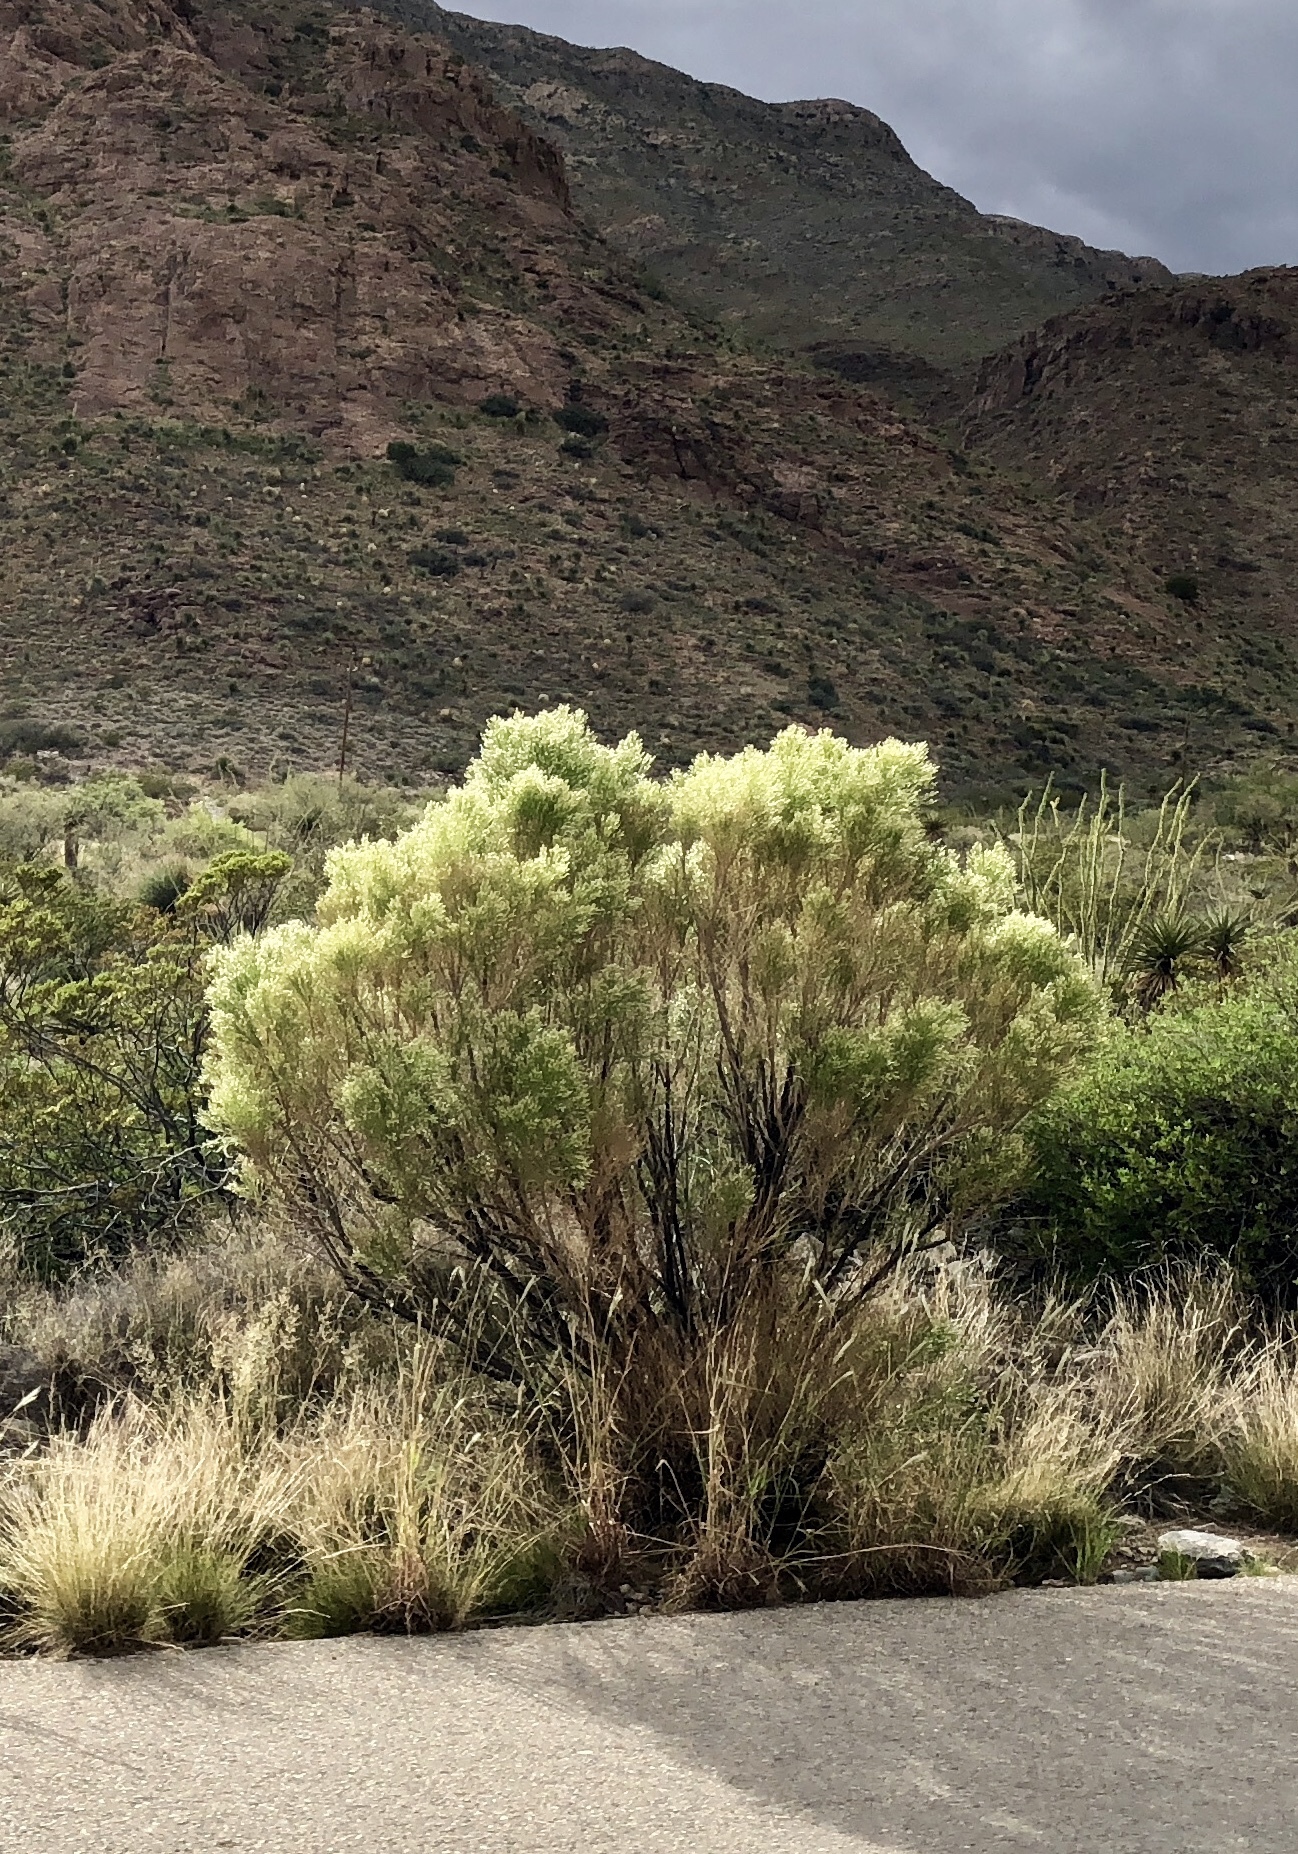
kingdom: Plantae
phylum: Tracheophyta
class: Magnoliopsida
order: Asterales
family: Asteraceae
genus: Baccharis
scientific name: Baccharis sarothroides
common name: Desert-broom
